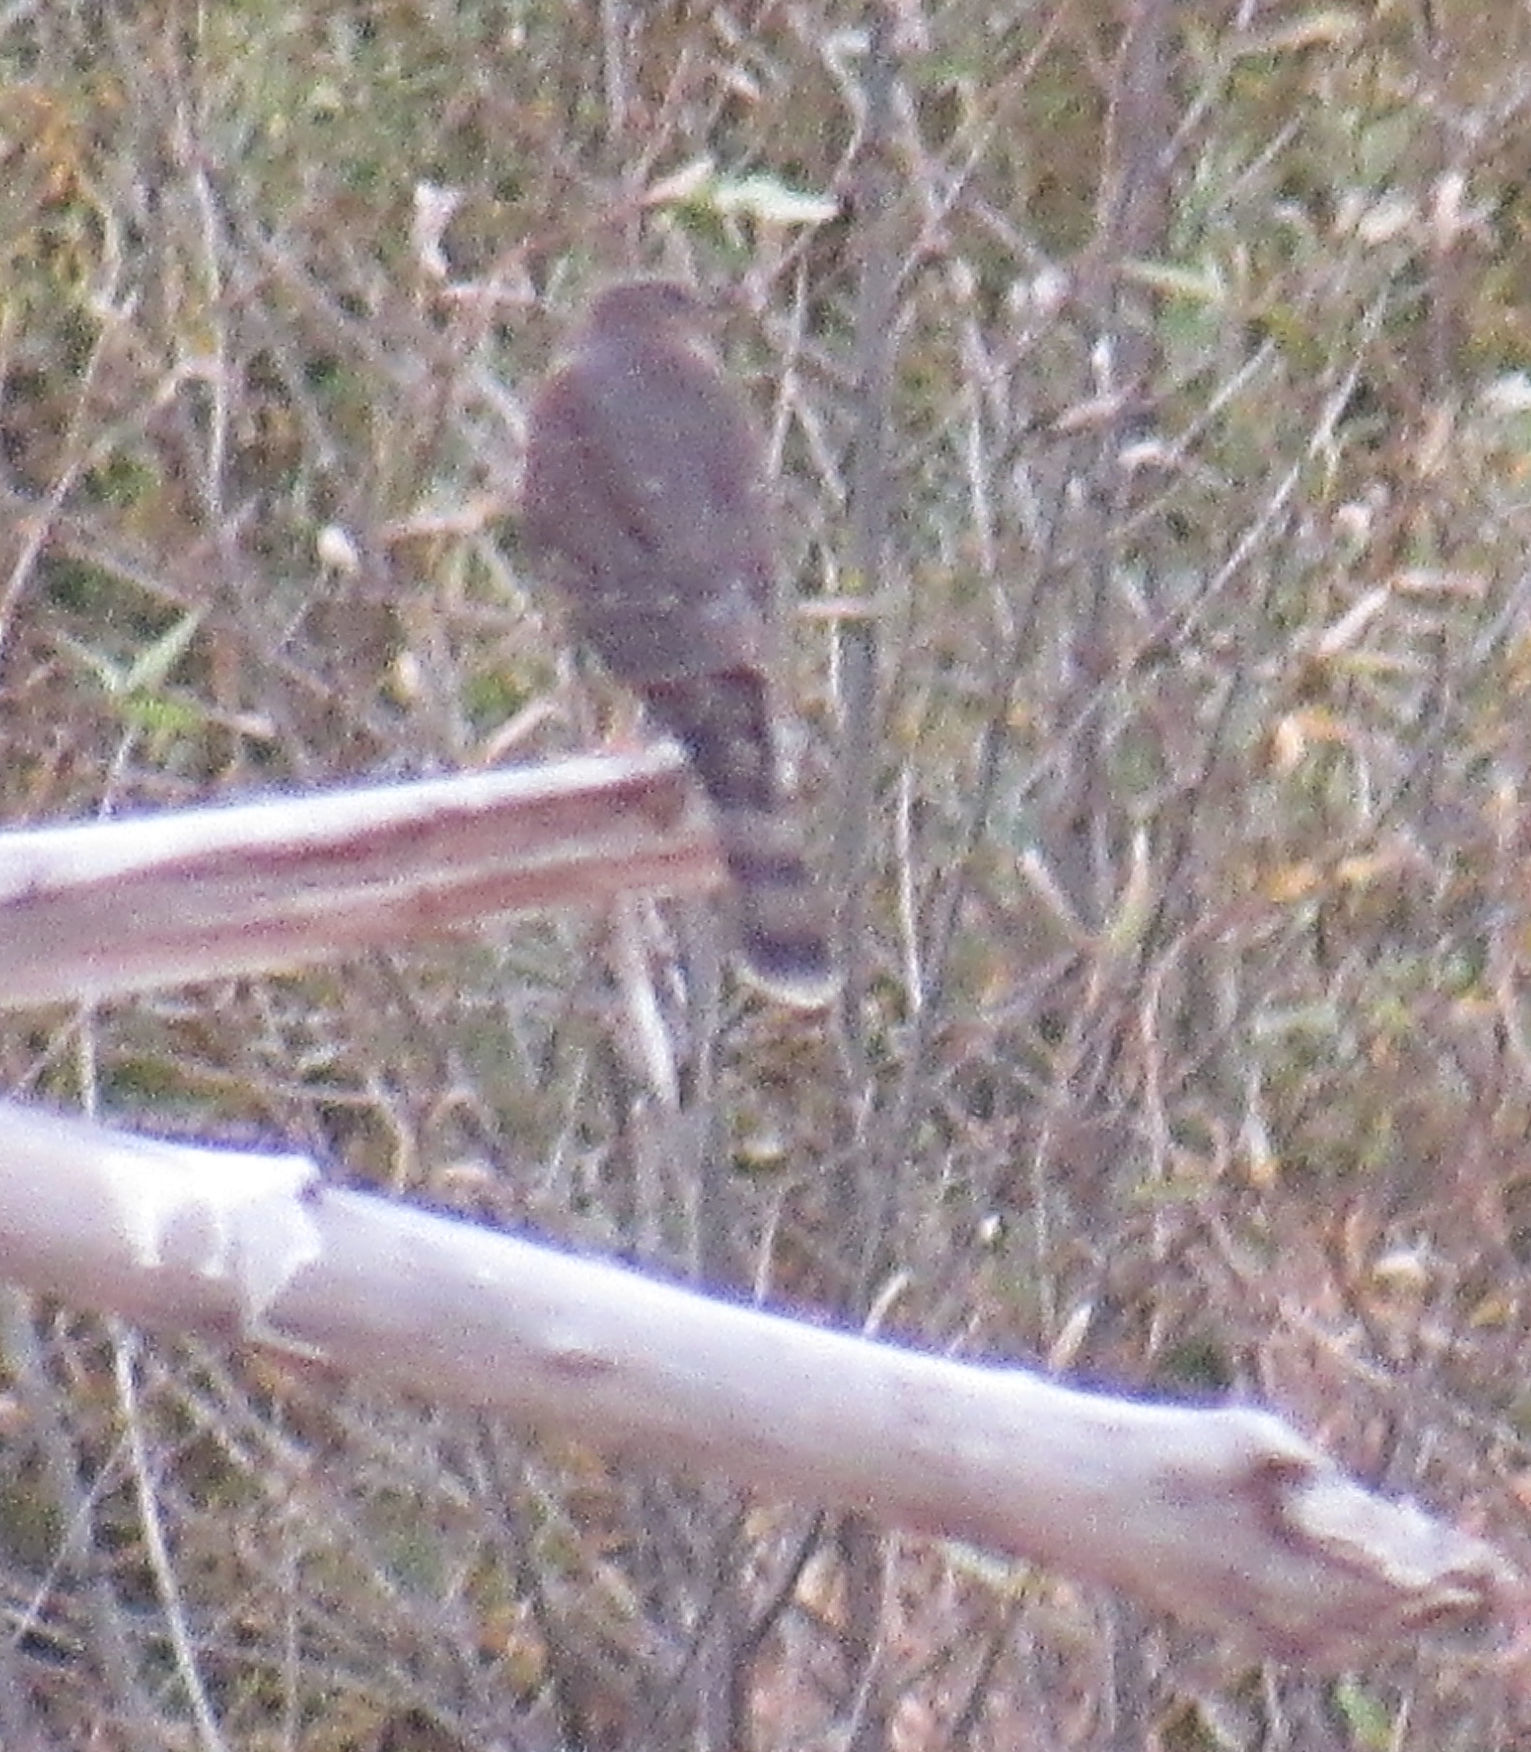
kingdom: Animalia
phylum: Chordata
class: Aves
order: Accipitriformes
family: Accipitridae
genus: Accipiter
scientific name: Accipiter cooperii
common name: Cooper's hawk
